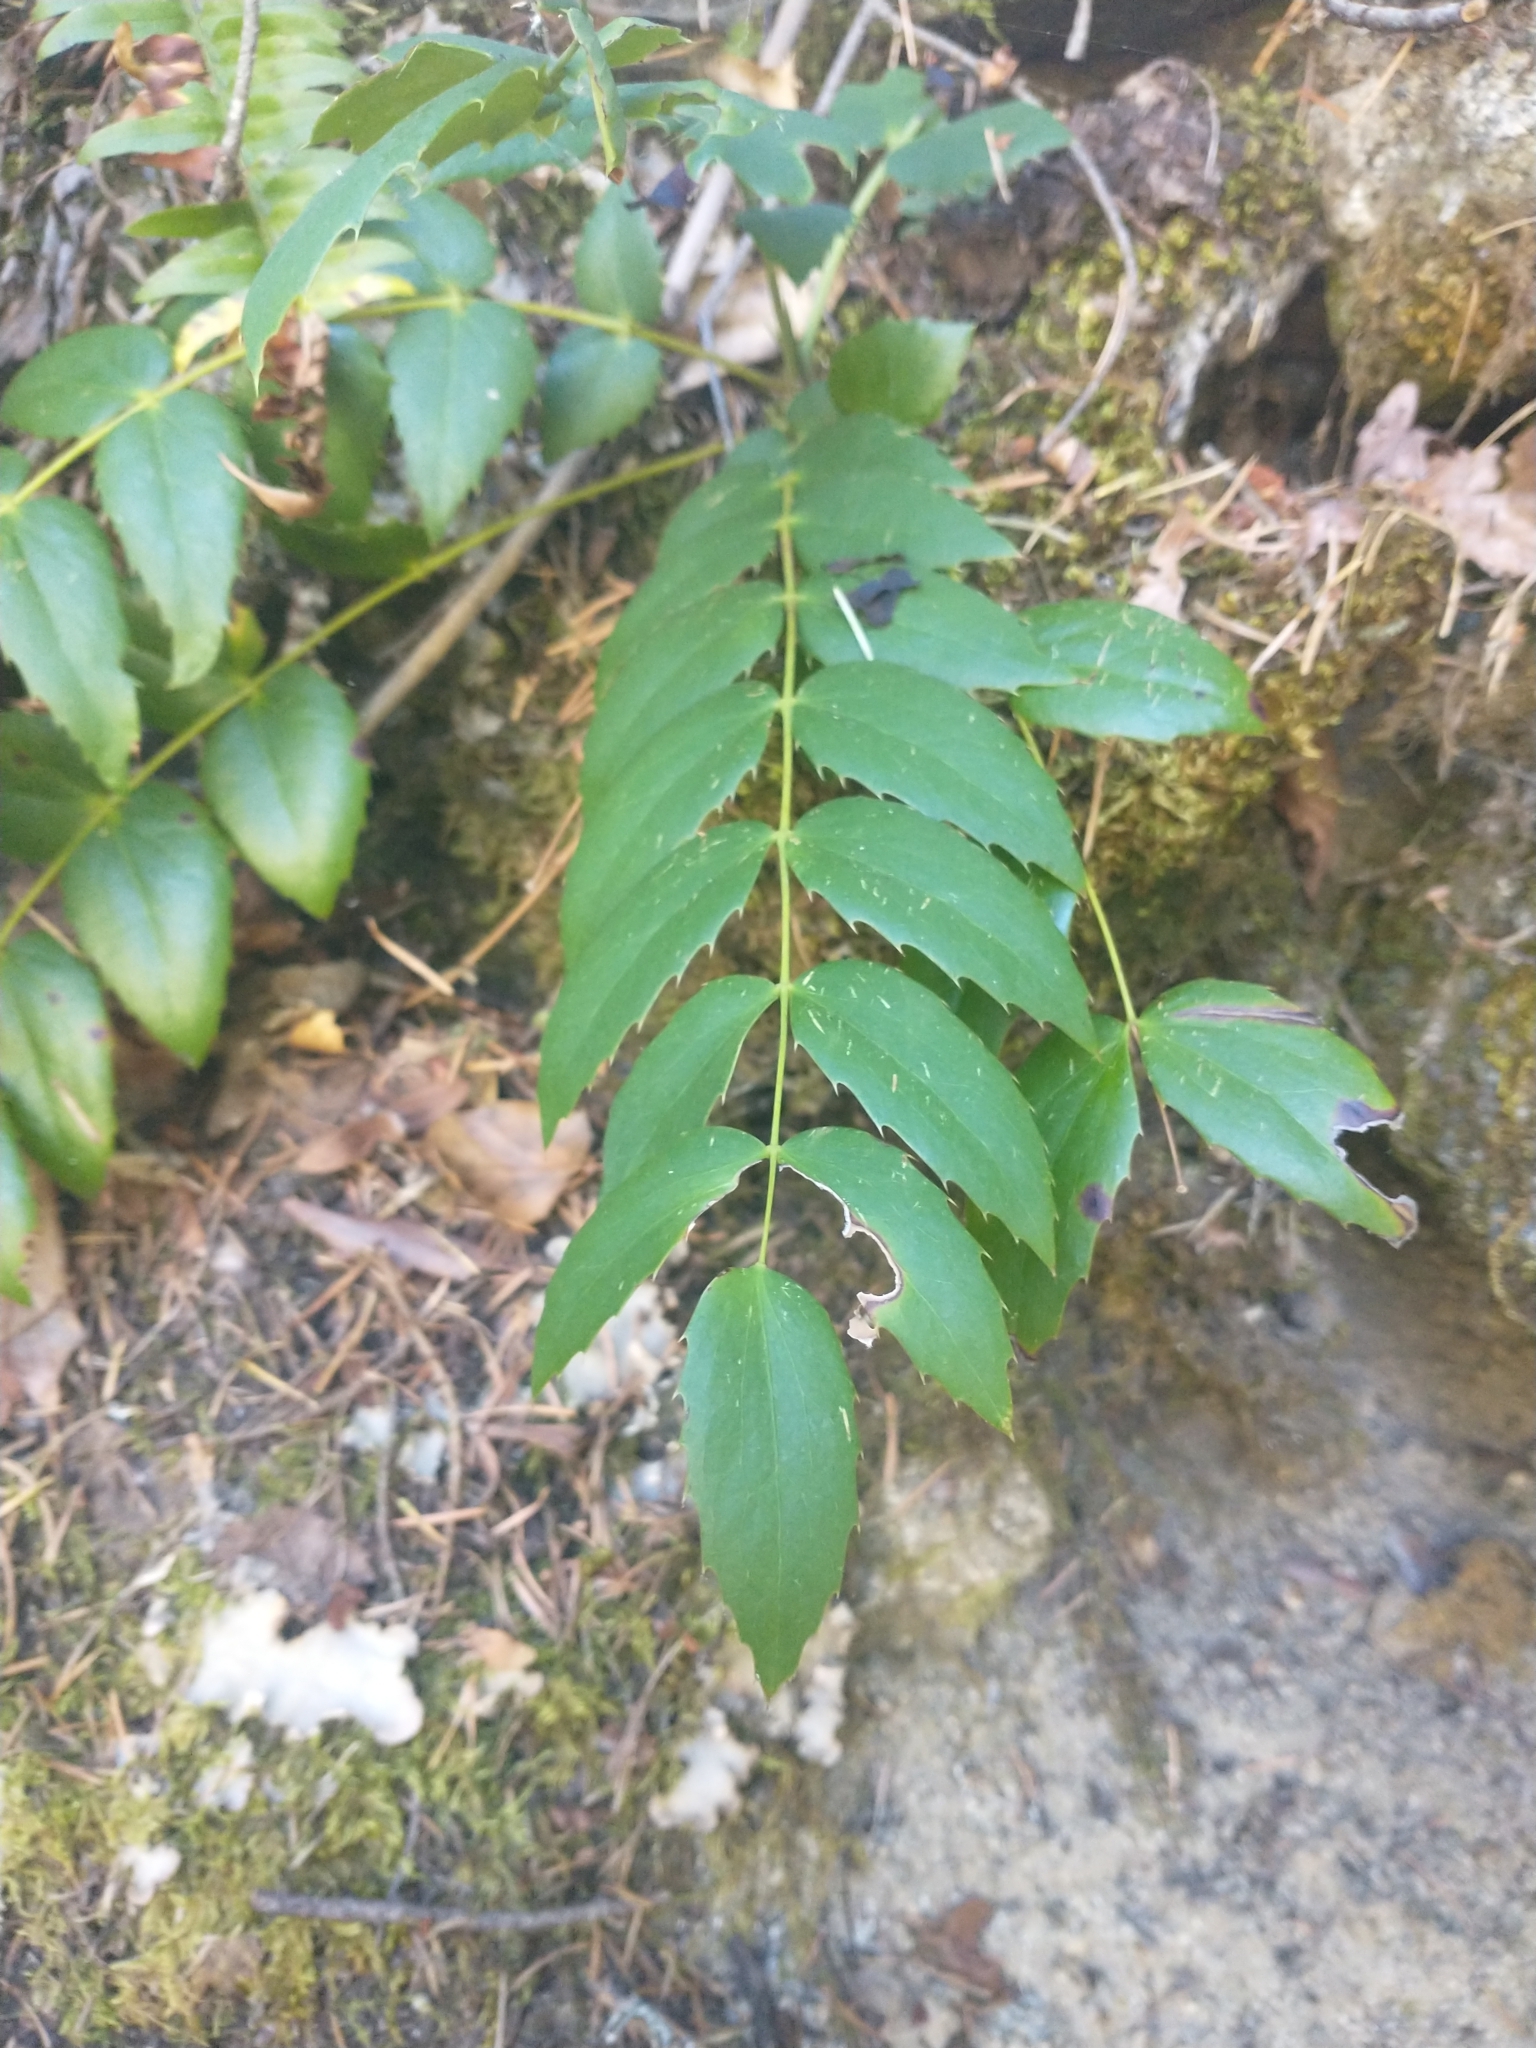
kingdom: Plantae
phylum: Tracheophyta
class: Magnoliopsida
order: Ranunculales
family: Berberidaceae
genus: Mahonia
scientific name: Mahonia nervosa
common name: Cascade oregon-grape
